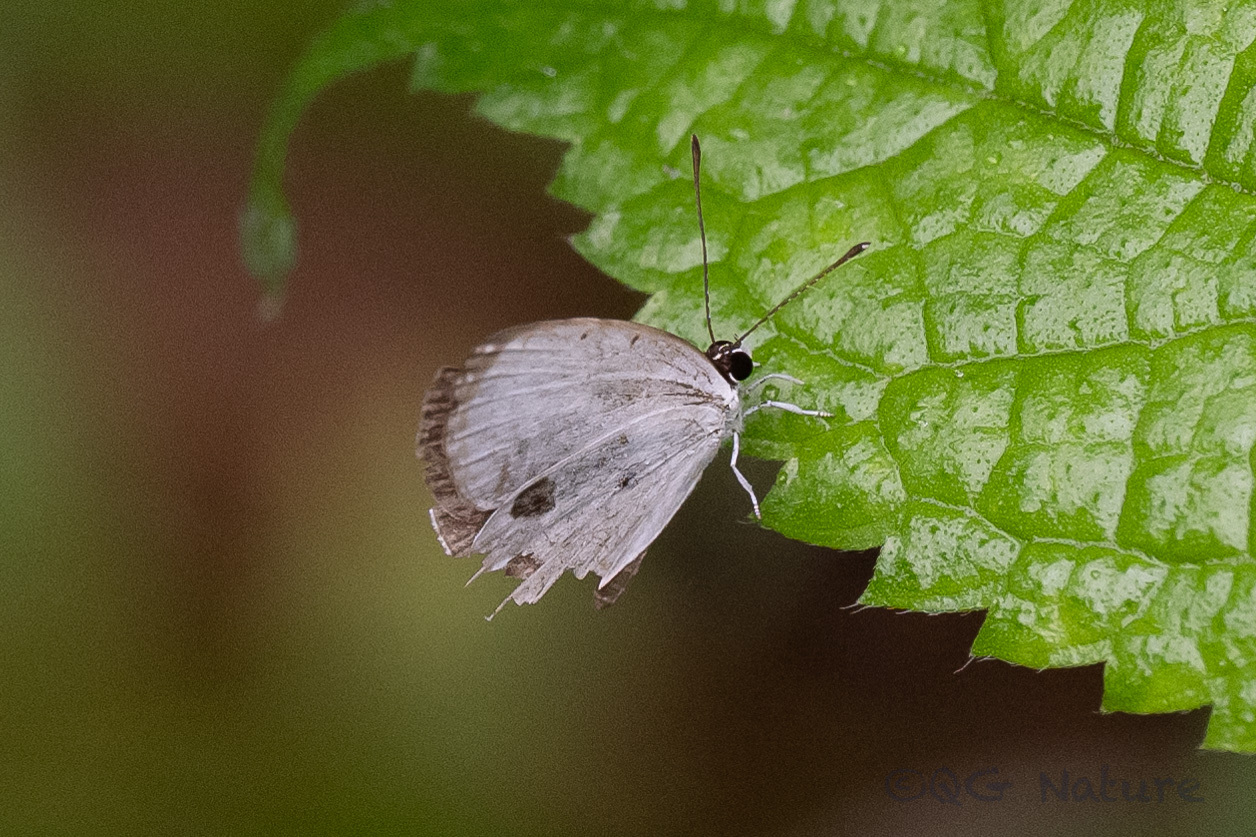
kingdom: Animalia
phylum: Arthropoda
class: Insecta
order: Lepidoptera
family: Lycaenidae
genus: Pithecops
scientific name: Pithecops corvus
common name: Forest quaker
